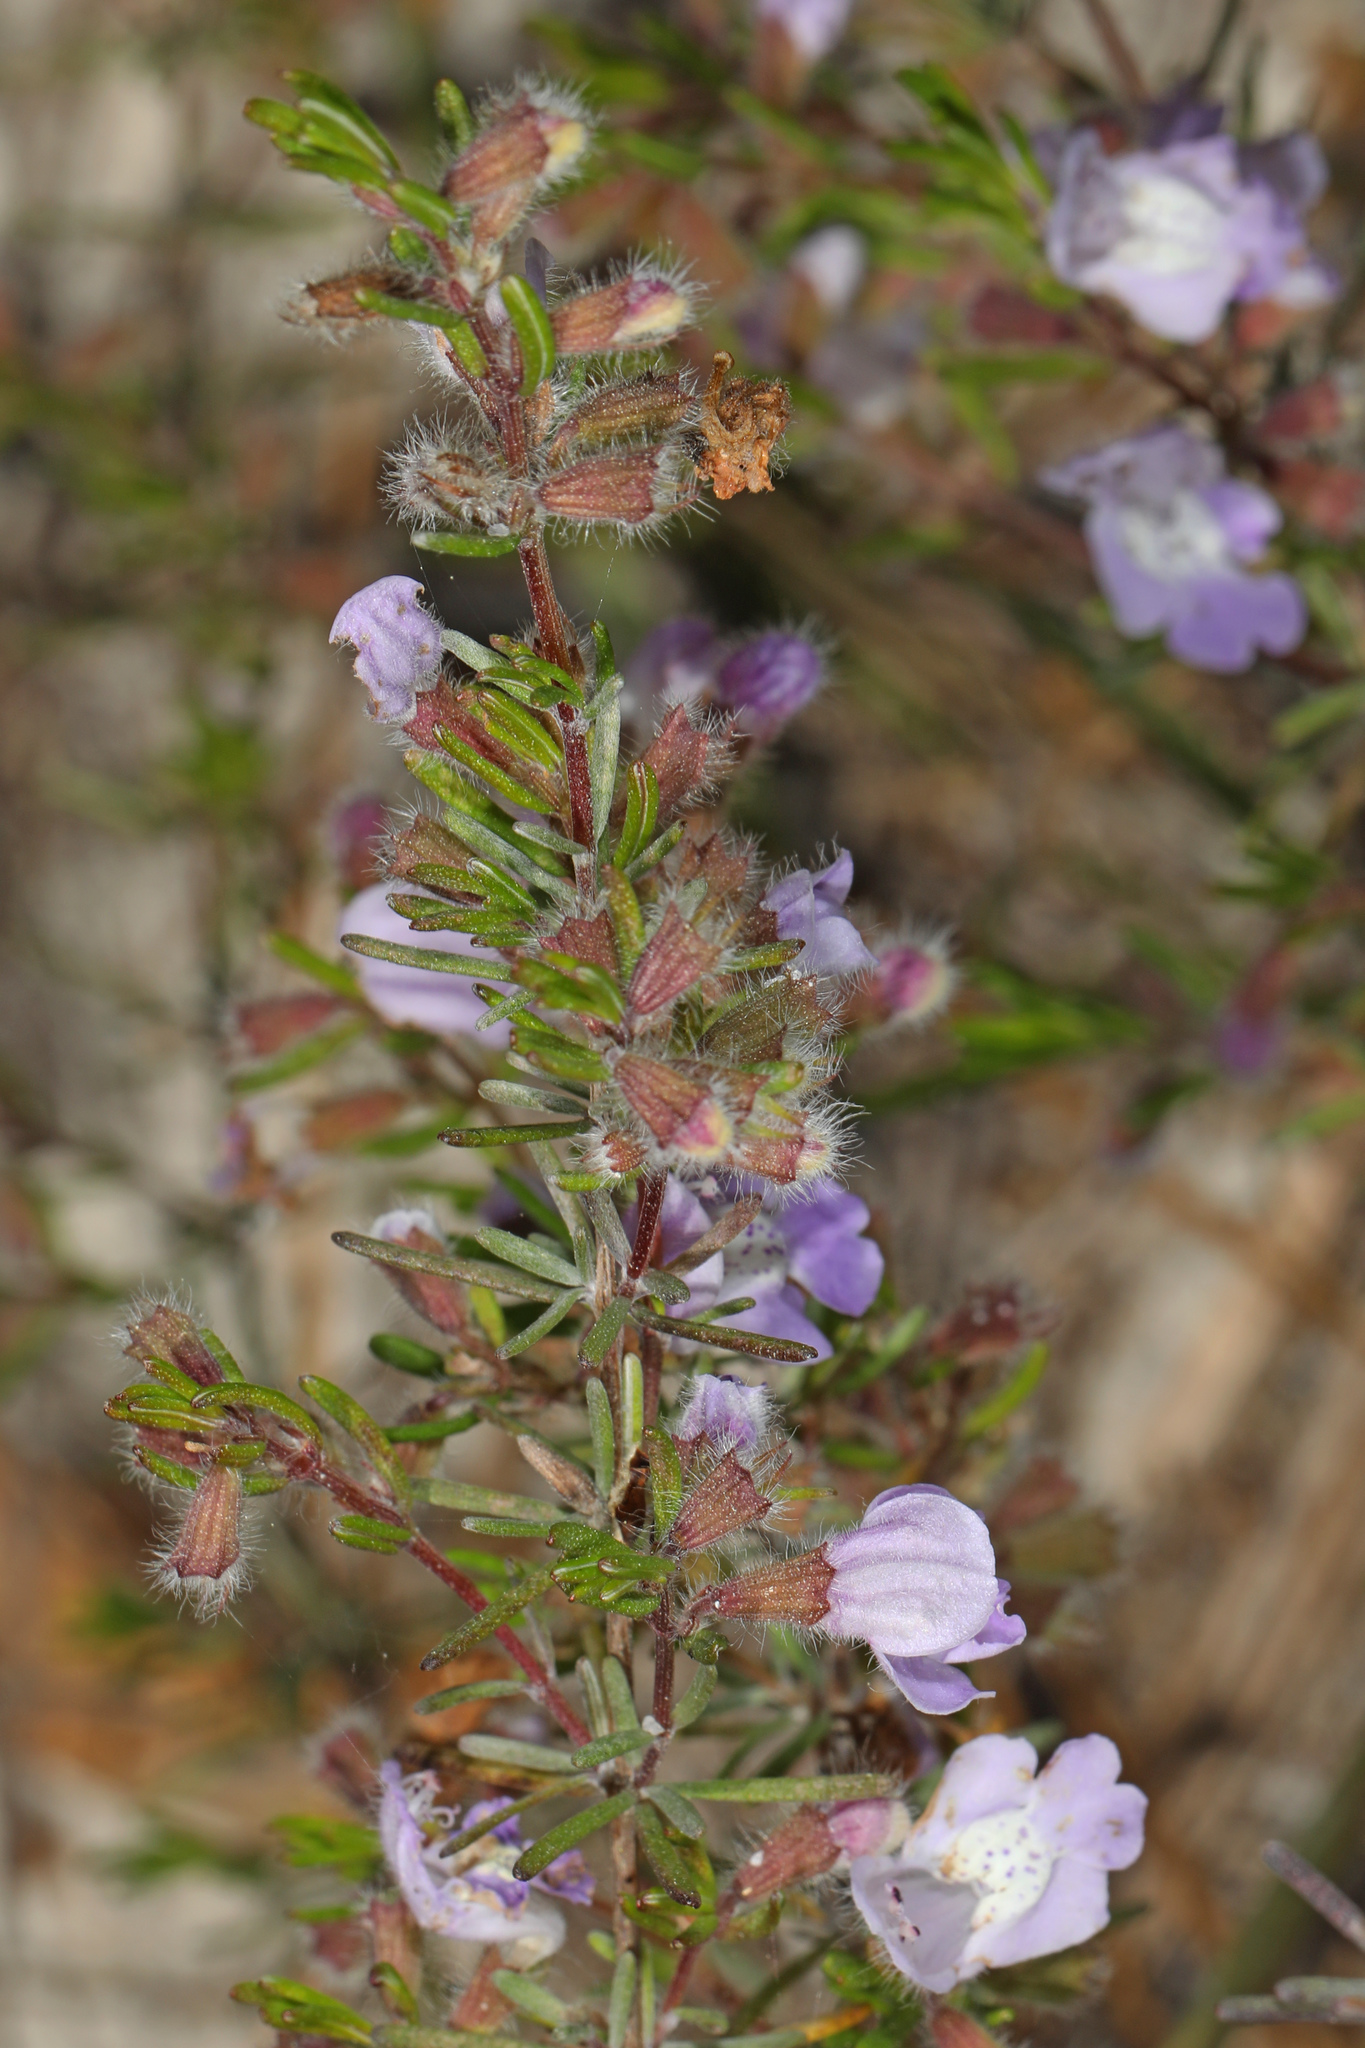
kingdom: Plantae
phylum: Tracheophyta
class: Magnoliopsida
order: Lamiales
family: Lamiaceae
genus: Conradina
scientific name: Conradina canescens
